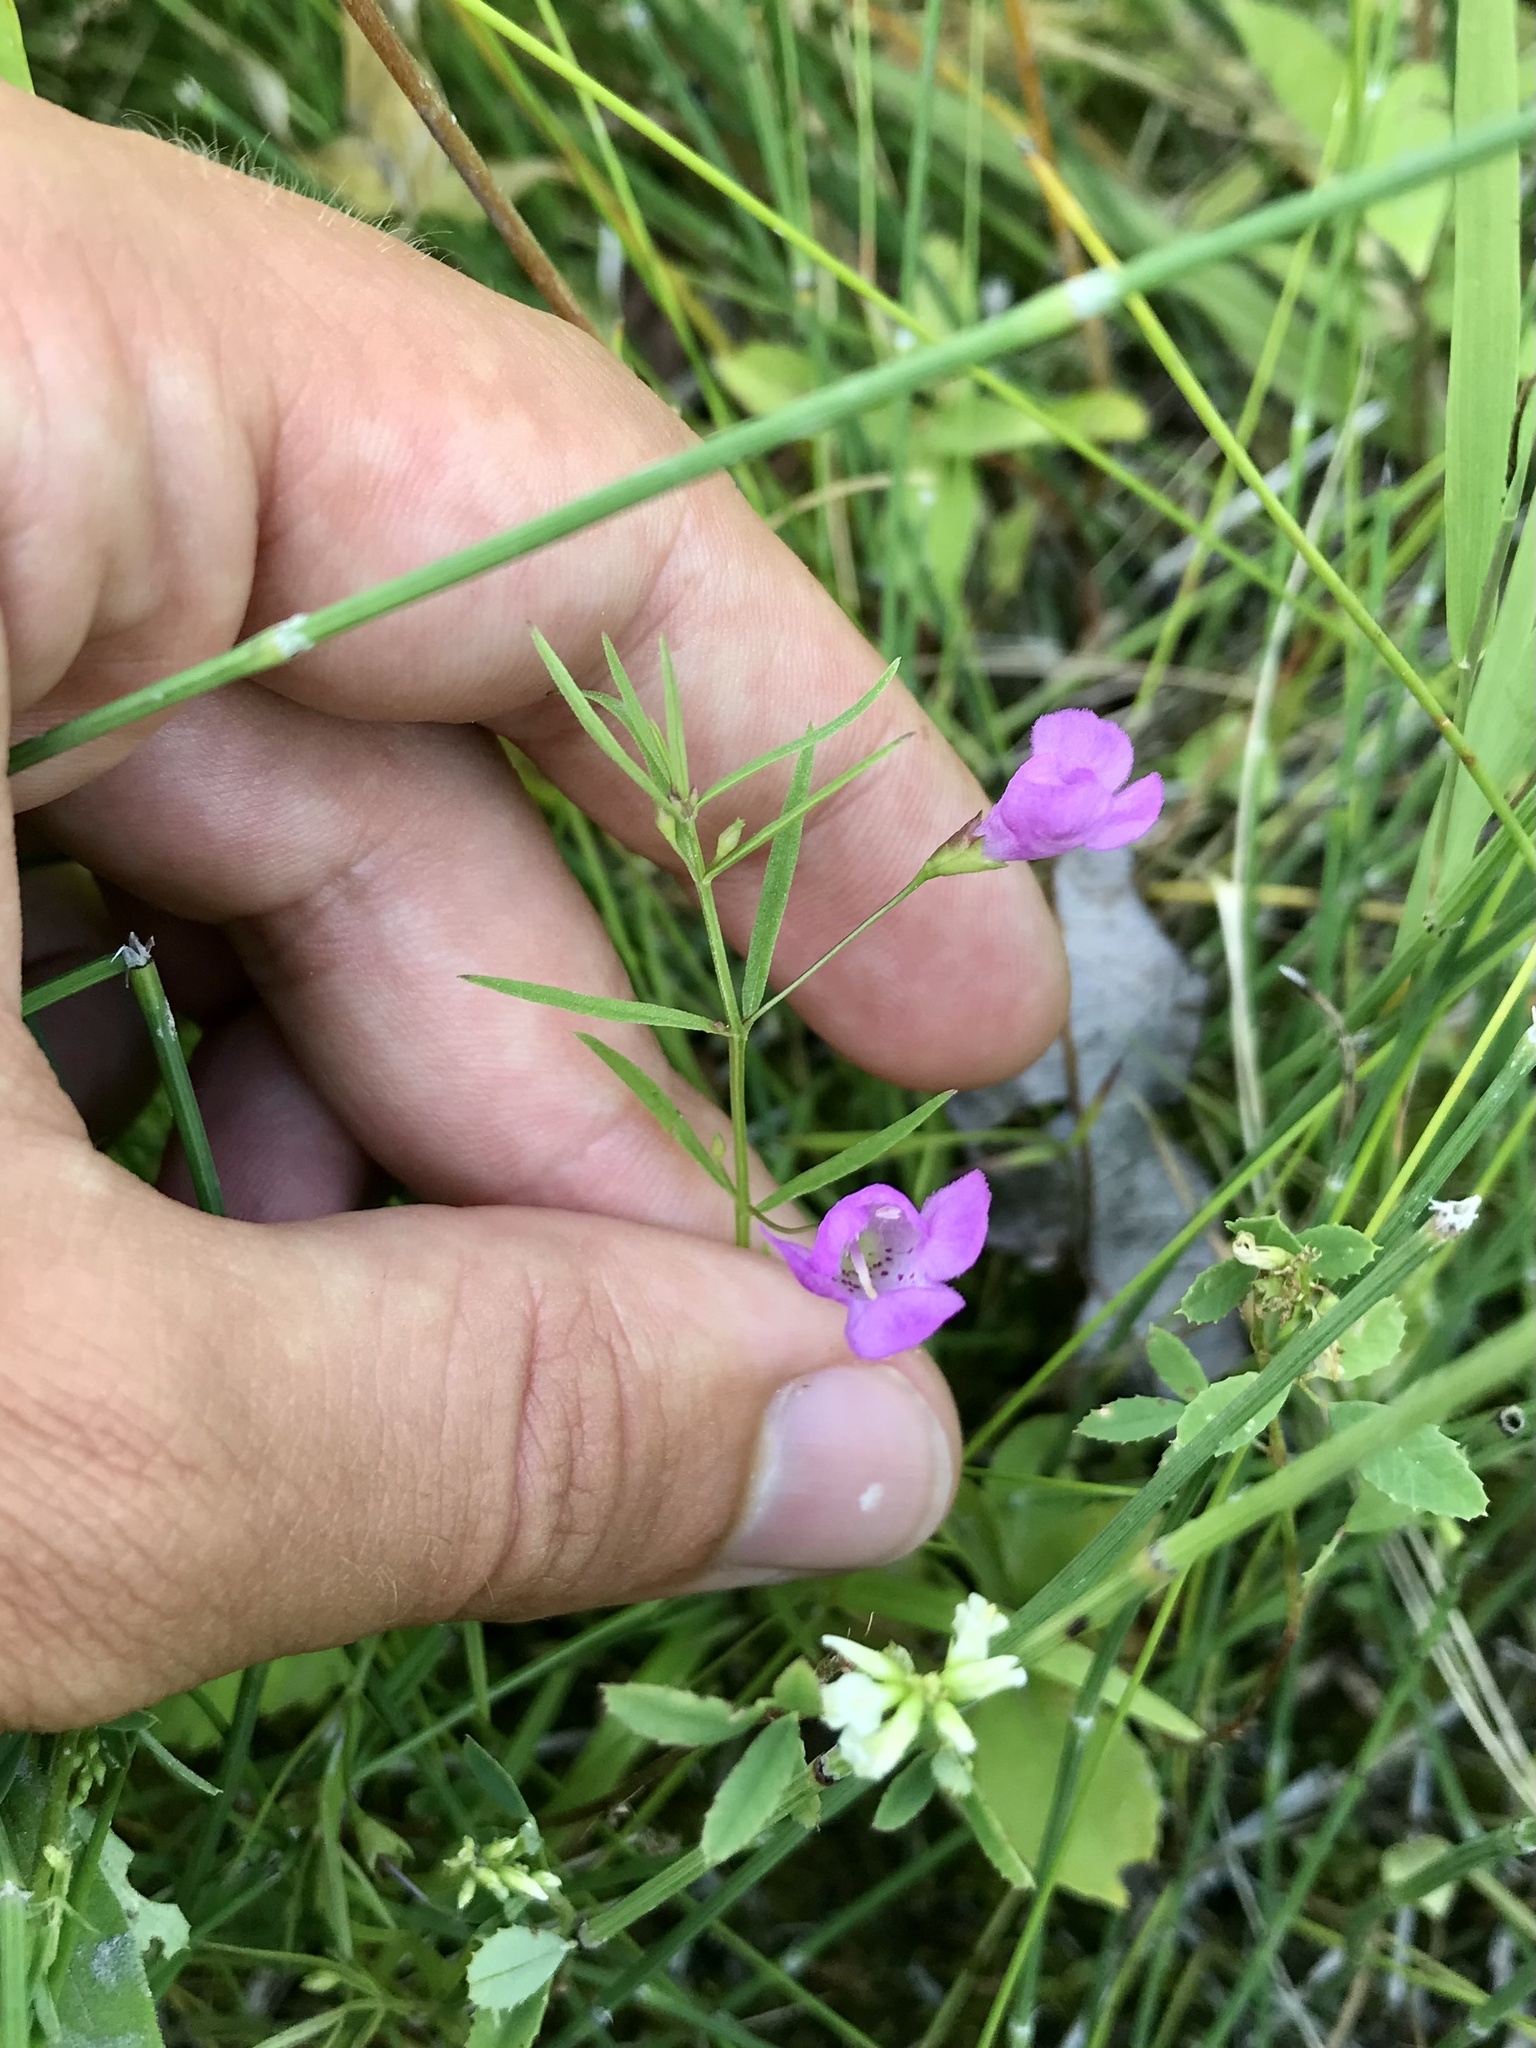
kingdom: Plantae
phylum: Tracheophyta
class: Magnoliopsida
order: Lamiales
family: Orobanchaceae
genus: Agalinis
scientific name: Agalinis tenuifolia
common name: Slender agalinis
